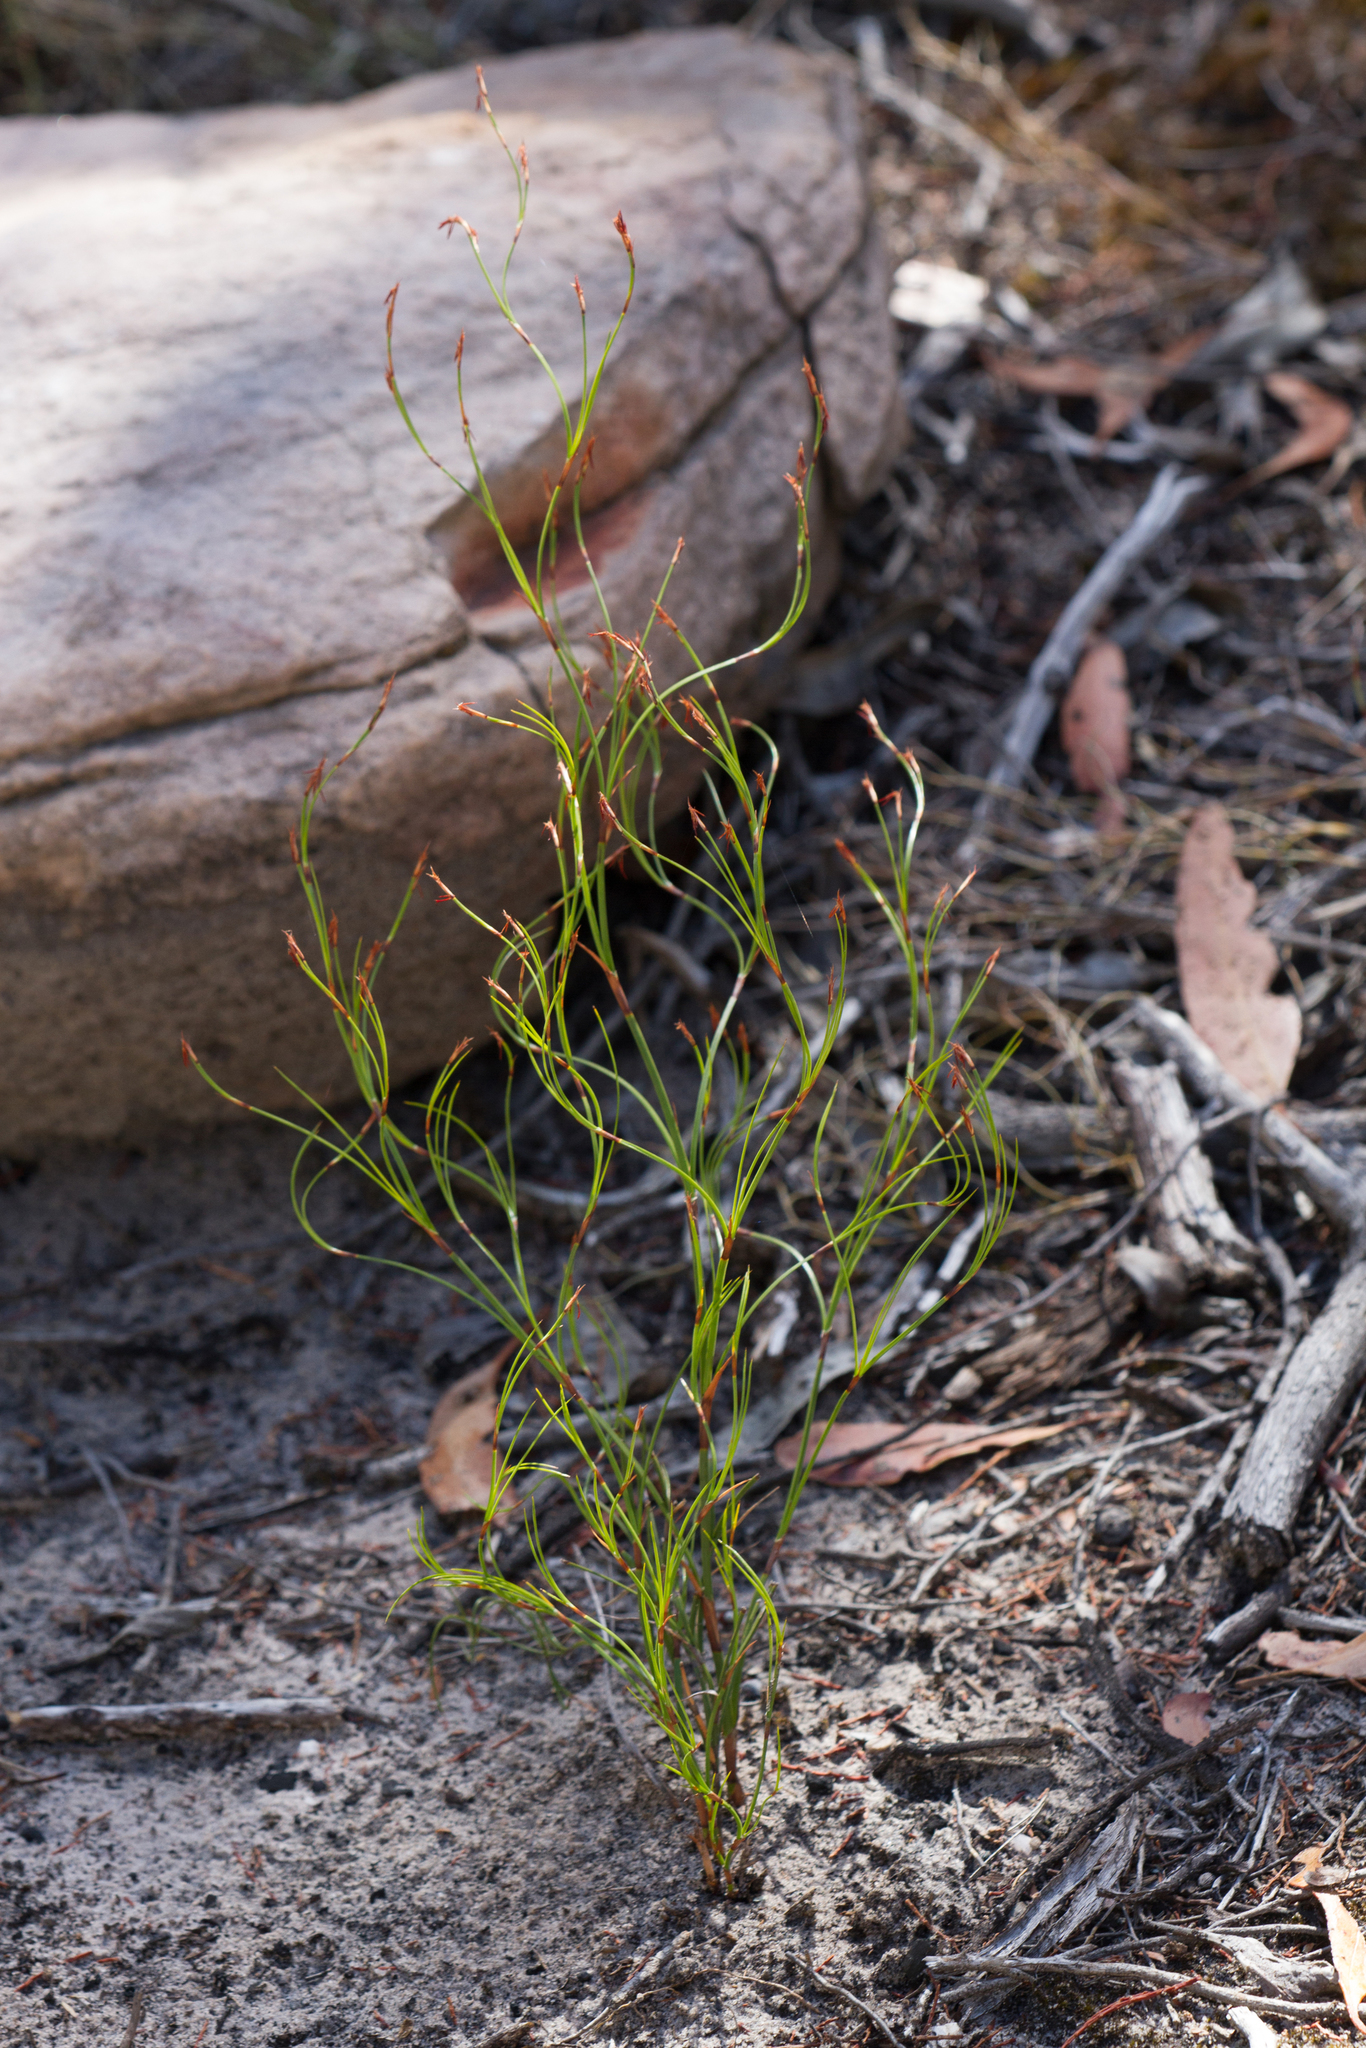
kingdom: Plantae
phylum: Tracheophyta
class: Liliopsida
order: Poales
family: Cyperaceae
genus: Caustis
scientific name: Caustis flexuosa
